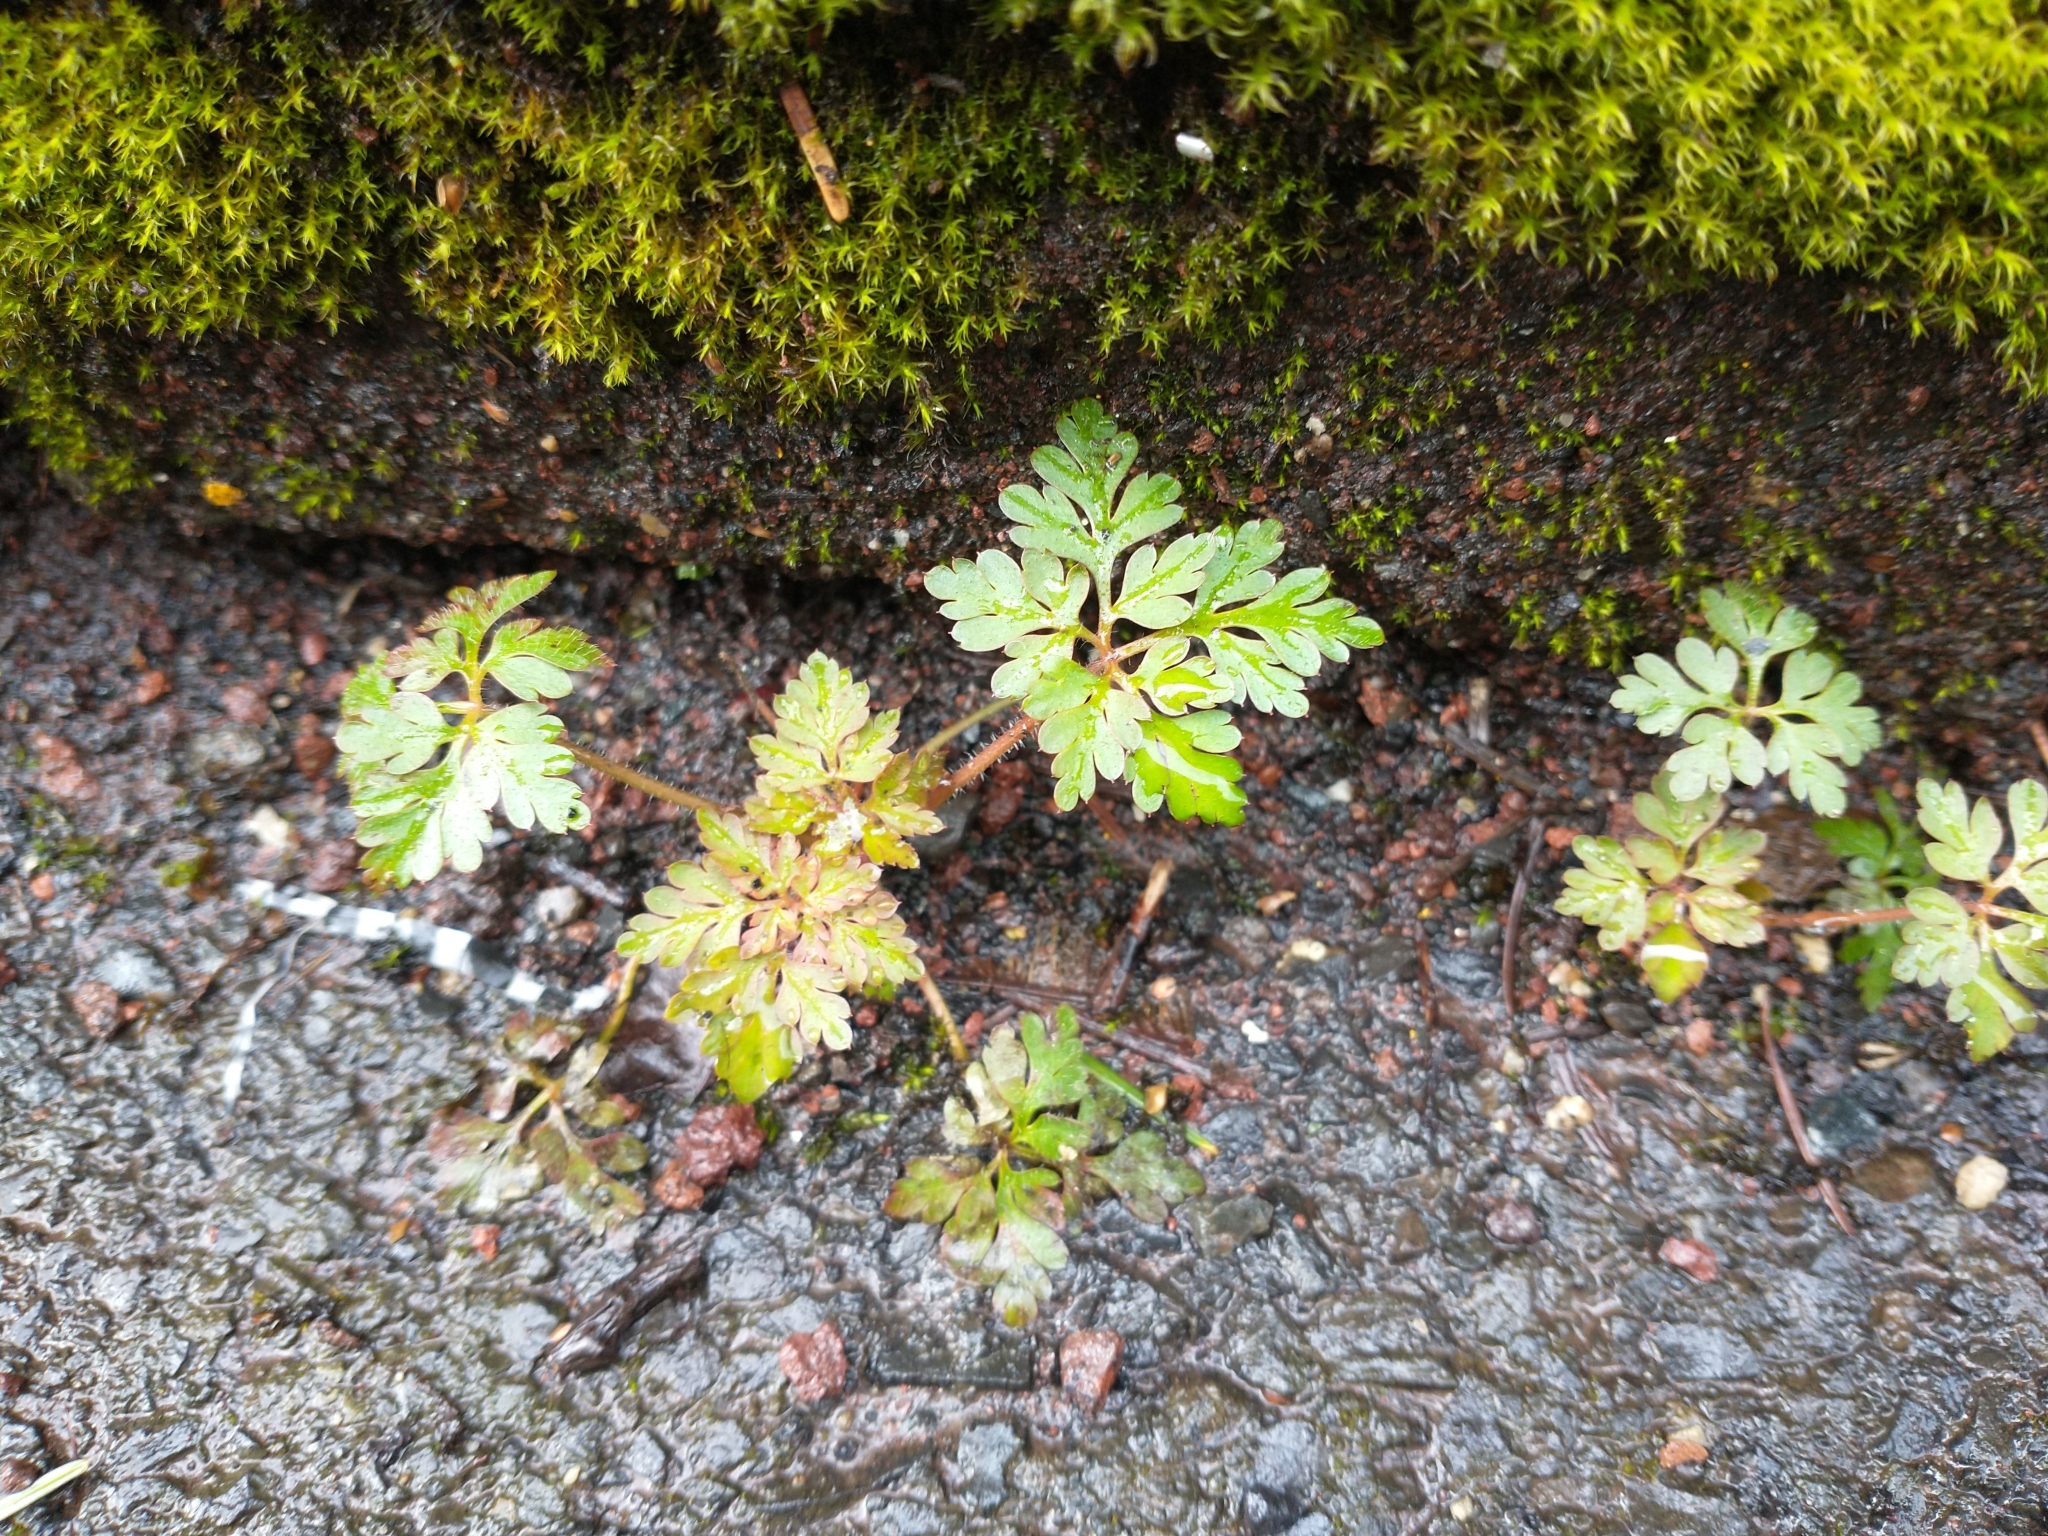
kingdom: Plantae
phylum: Tracheophyta
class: Magnoliopsida
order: Geraniales
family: Geraniaceae
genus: Geranium
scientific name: Geranium robertianum
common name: Herb-robert
